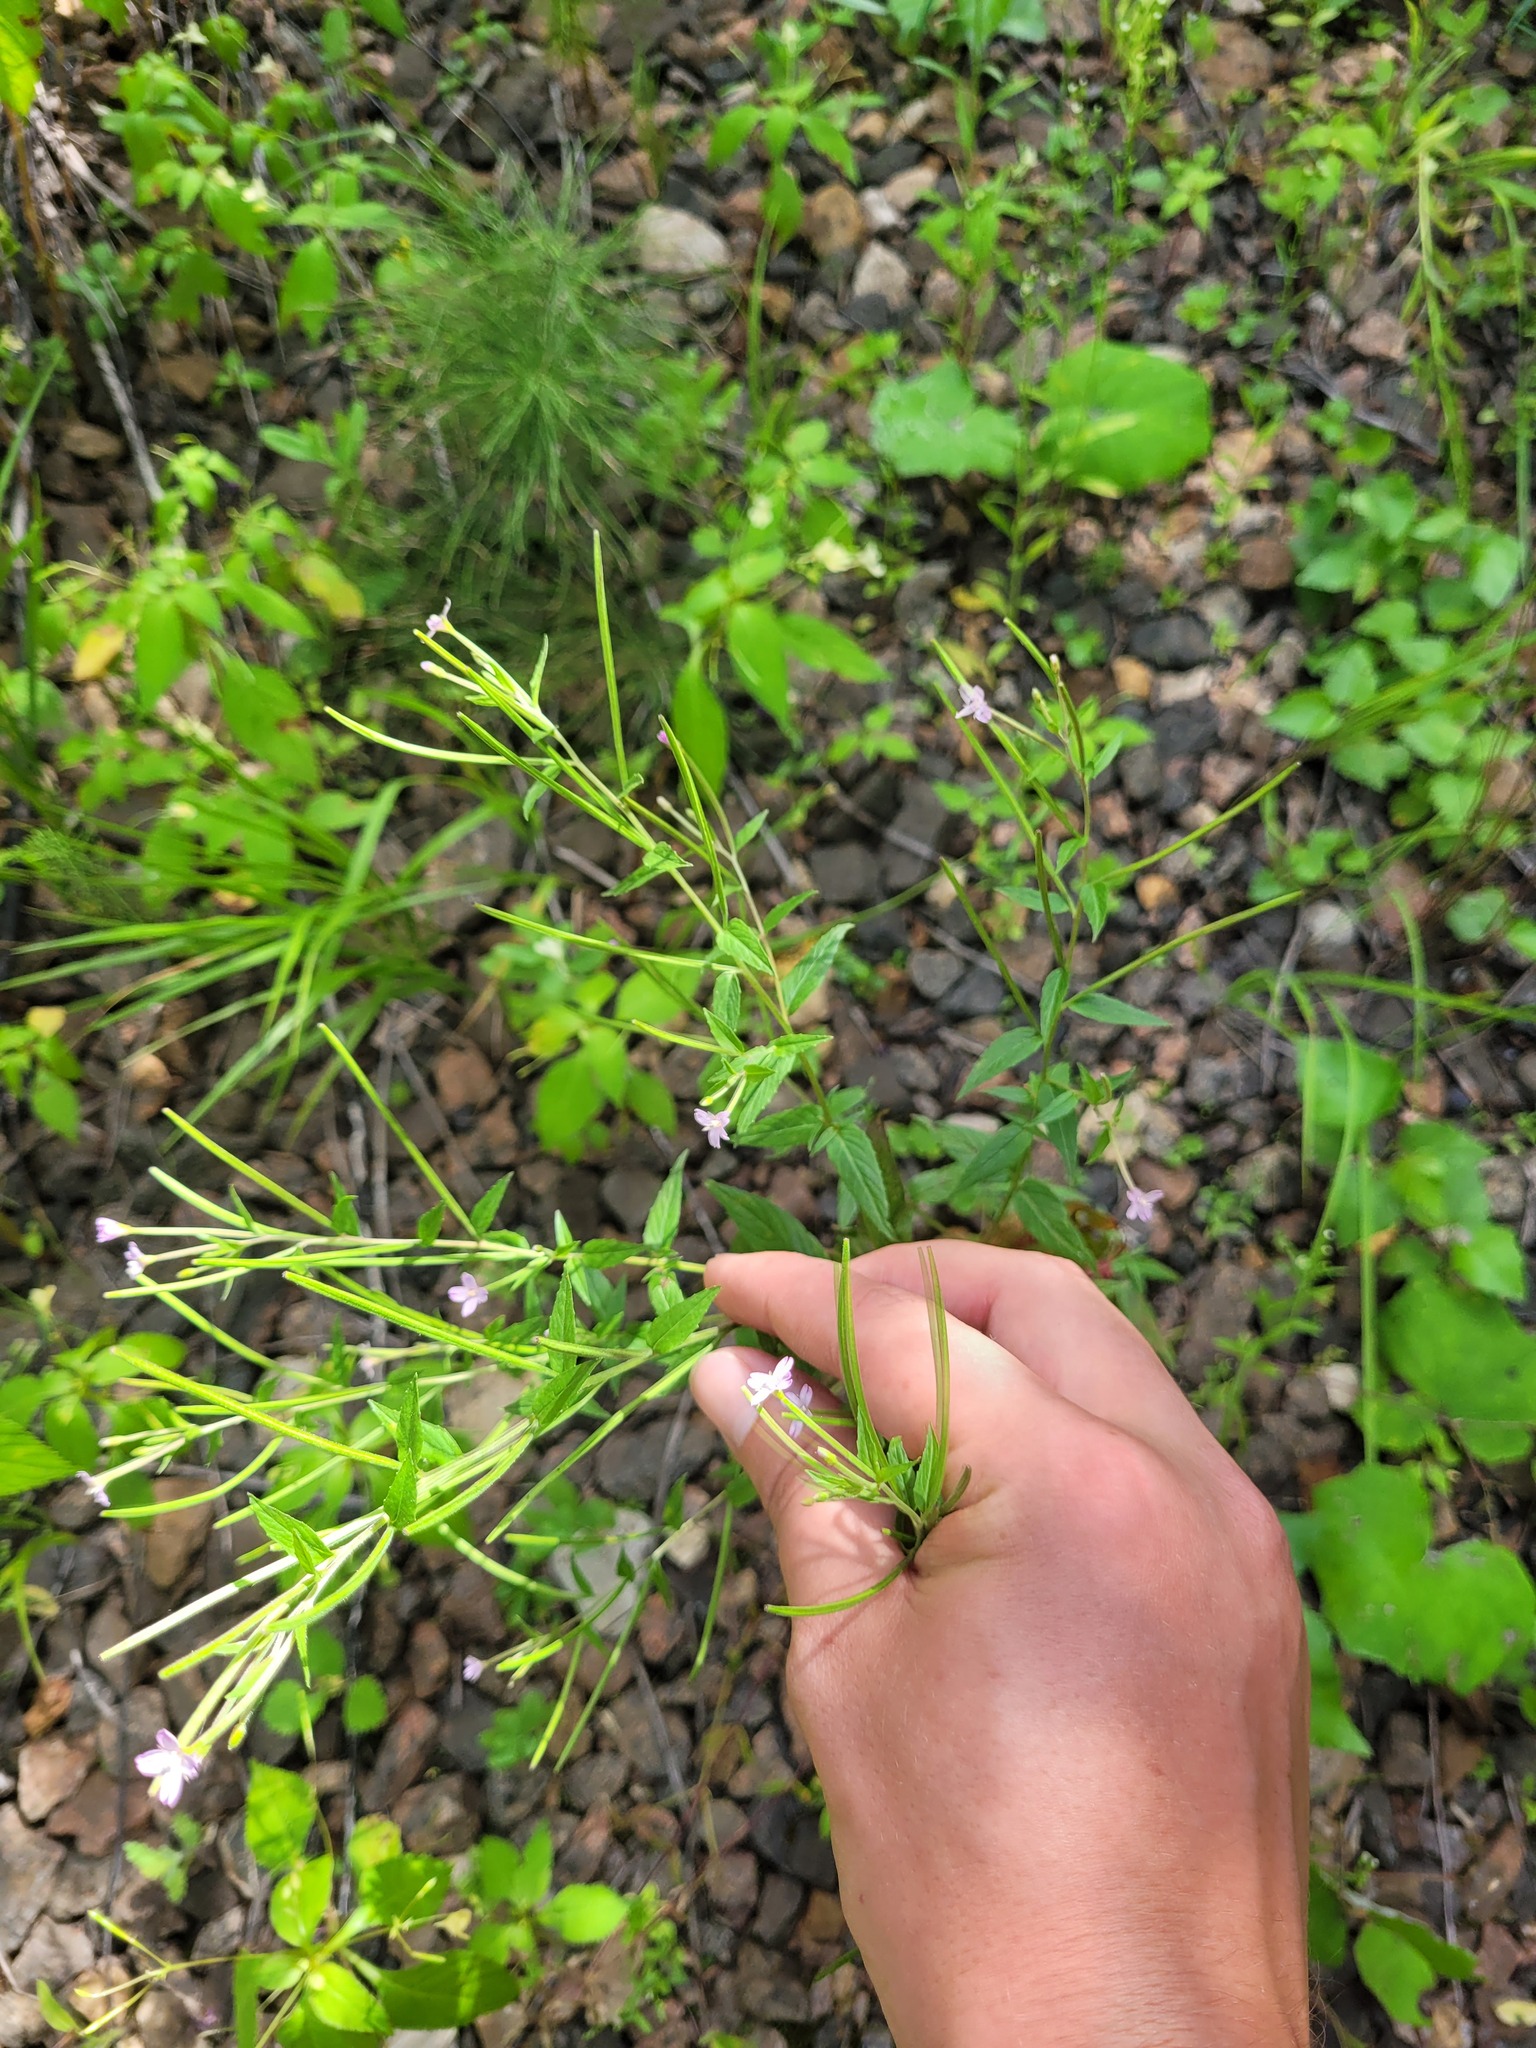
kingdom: Plantae
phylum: Tracheophyta
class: Magnoliopsida
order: Myrtales
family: Onagraceae
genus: Epilobium
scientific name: Epilobium ciliatum
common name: American willowherb
